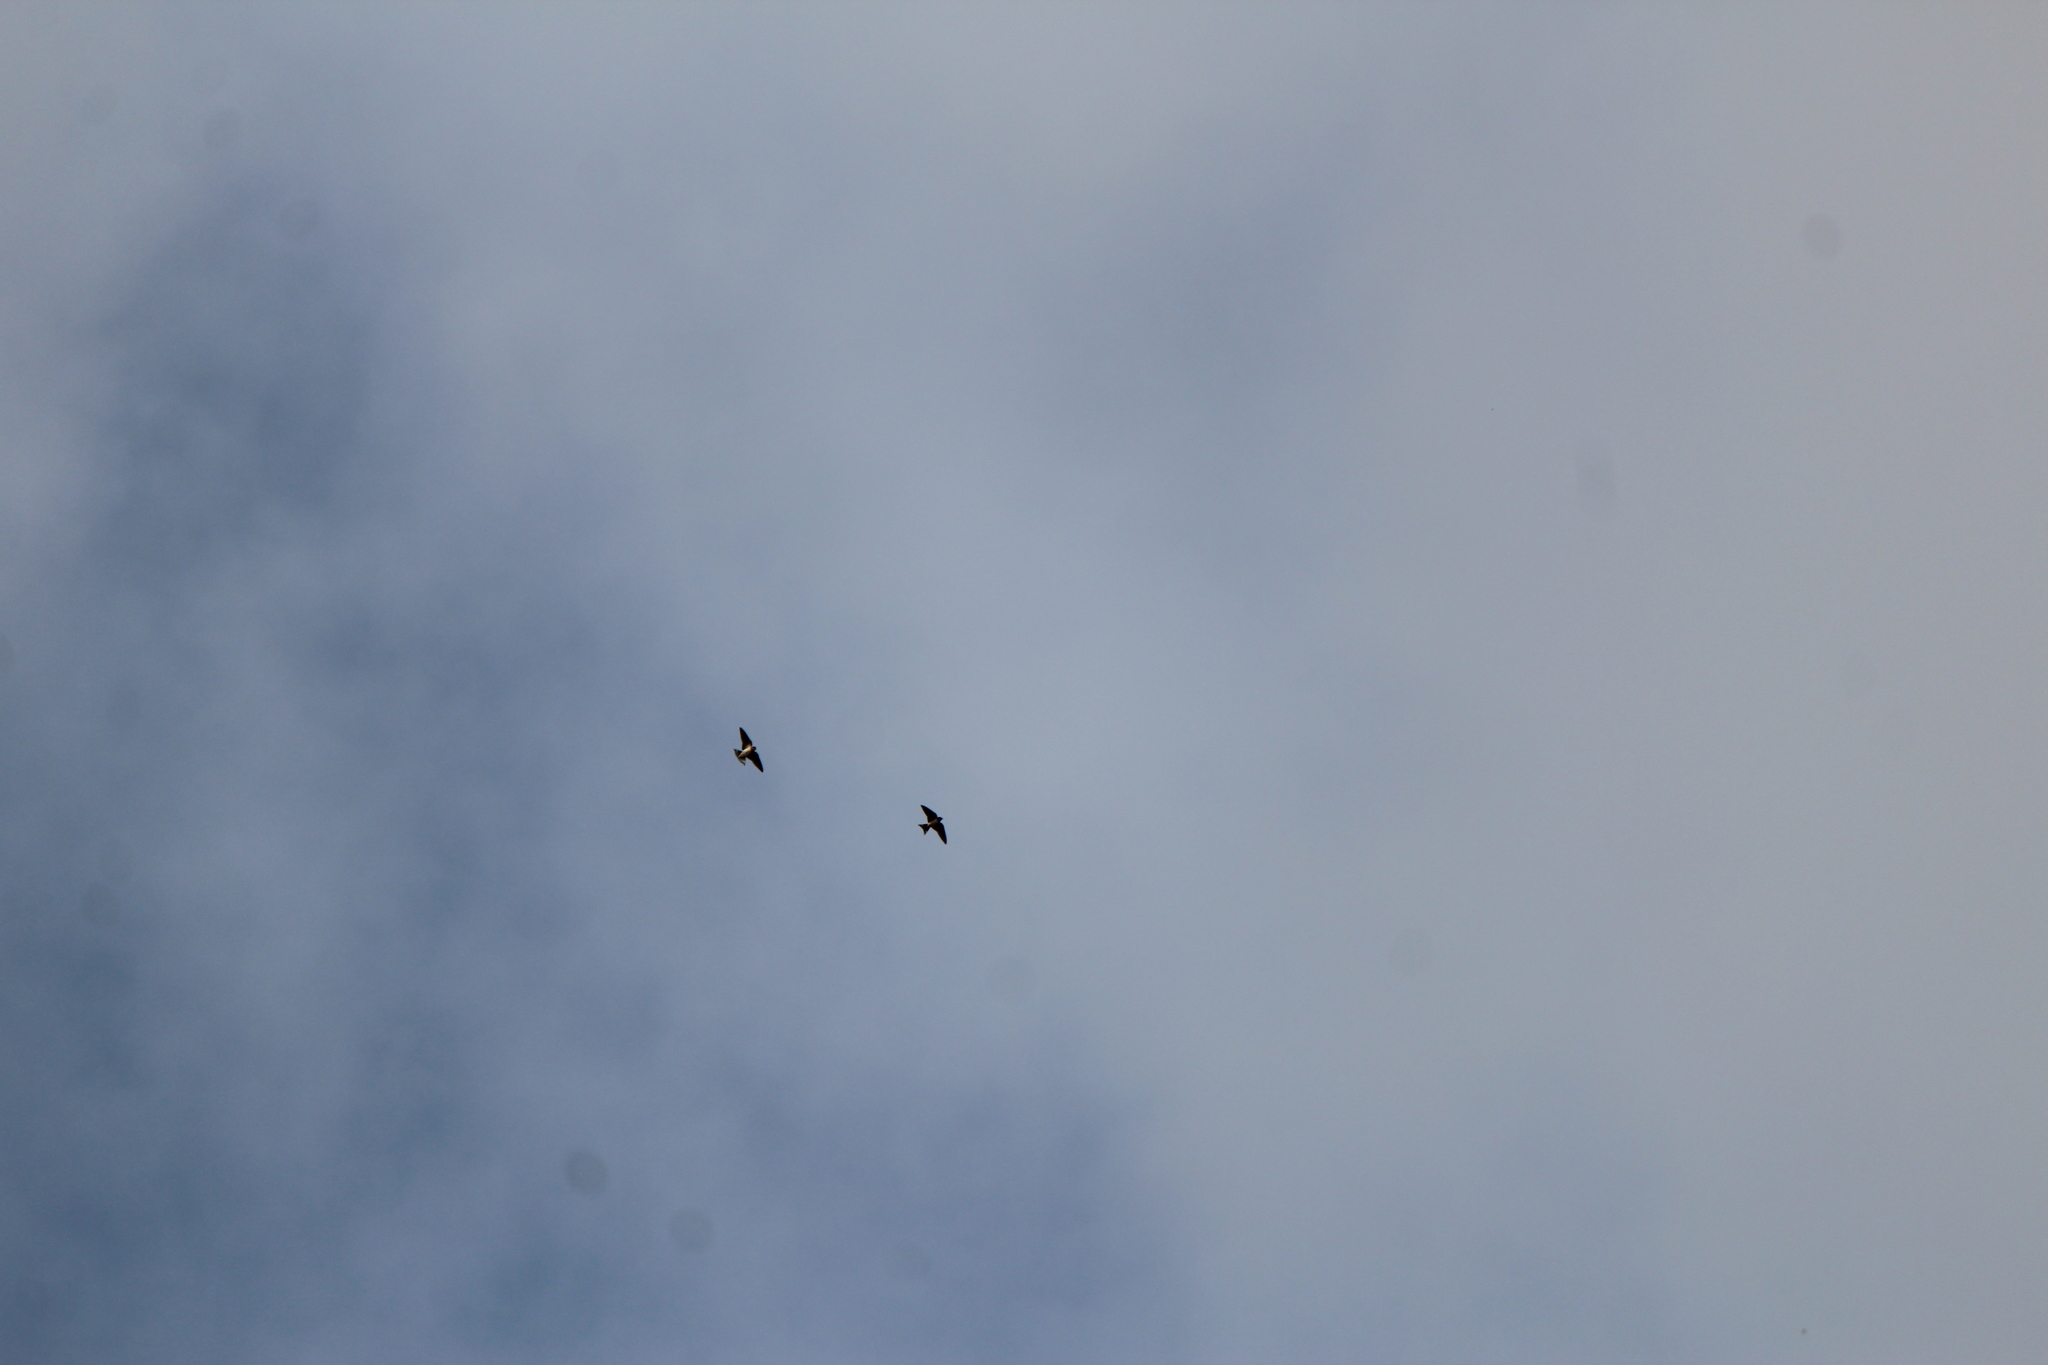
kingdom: Animalia
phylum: Chordata
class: Aves
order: Passeriformes
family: Hirundinidae
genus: Hirundo
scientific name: Hirundo rustica
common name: Barn swallow
